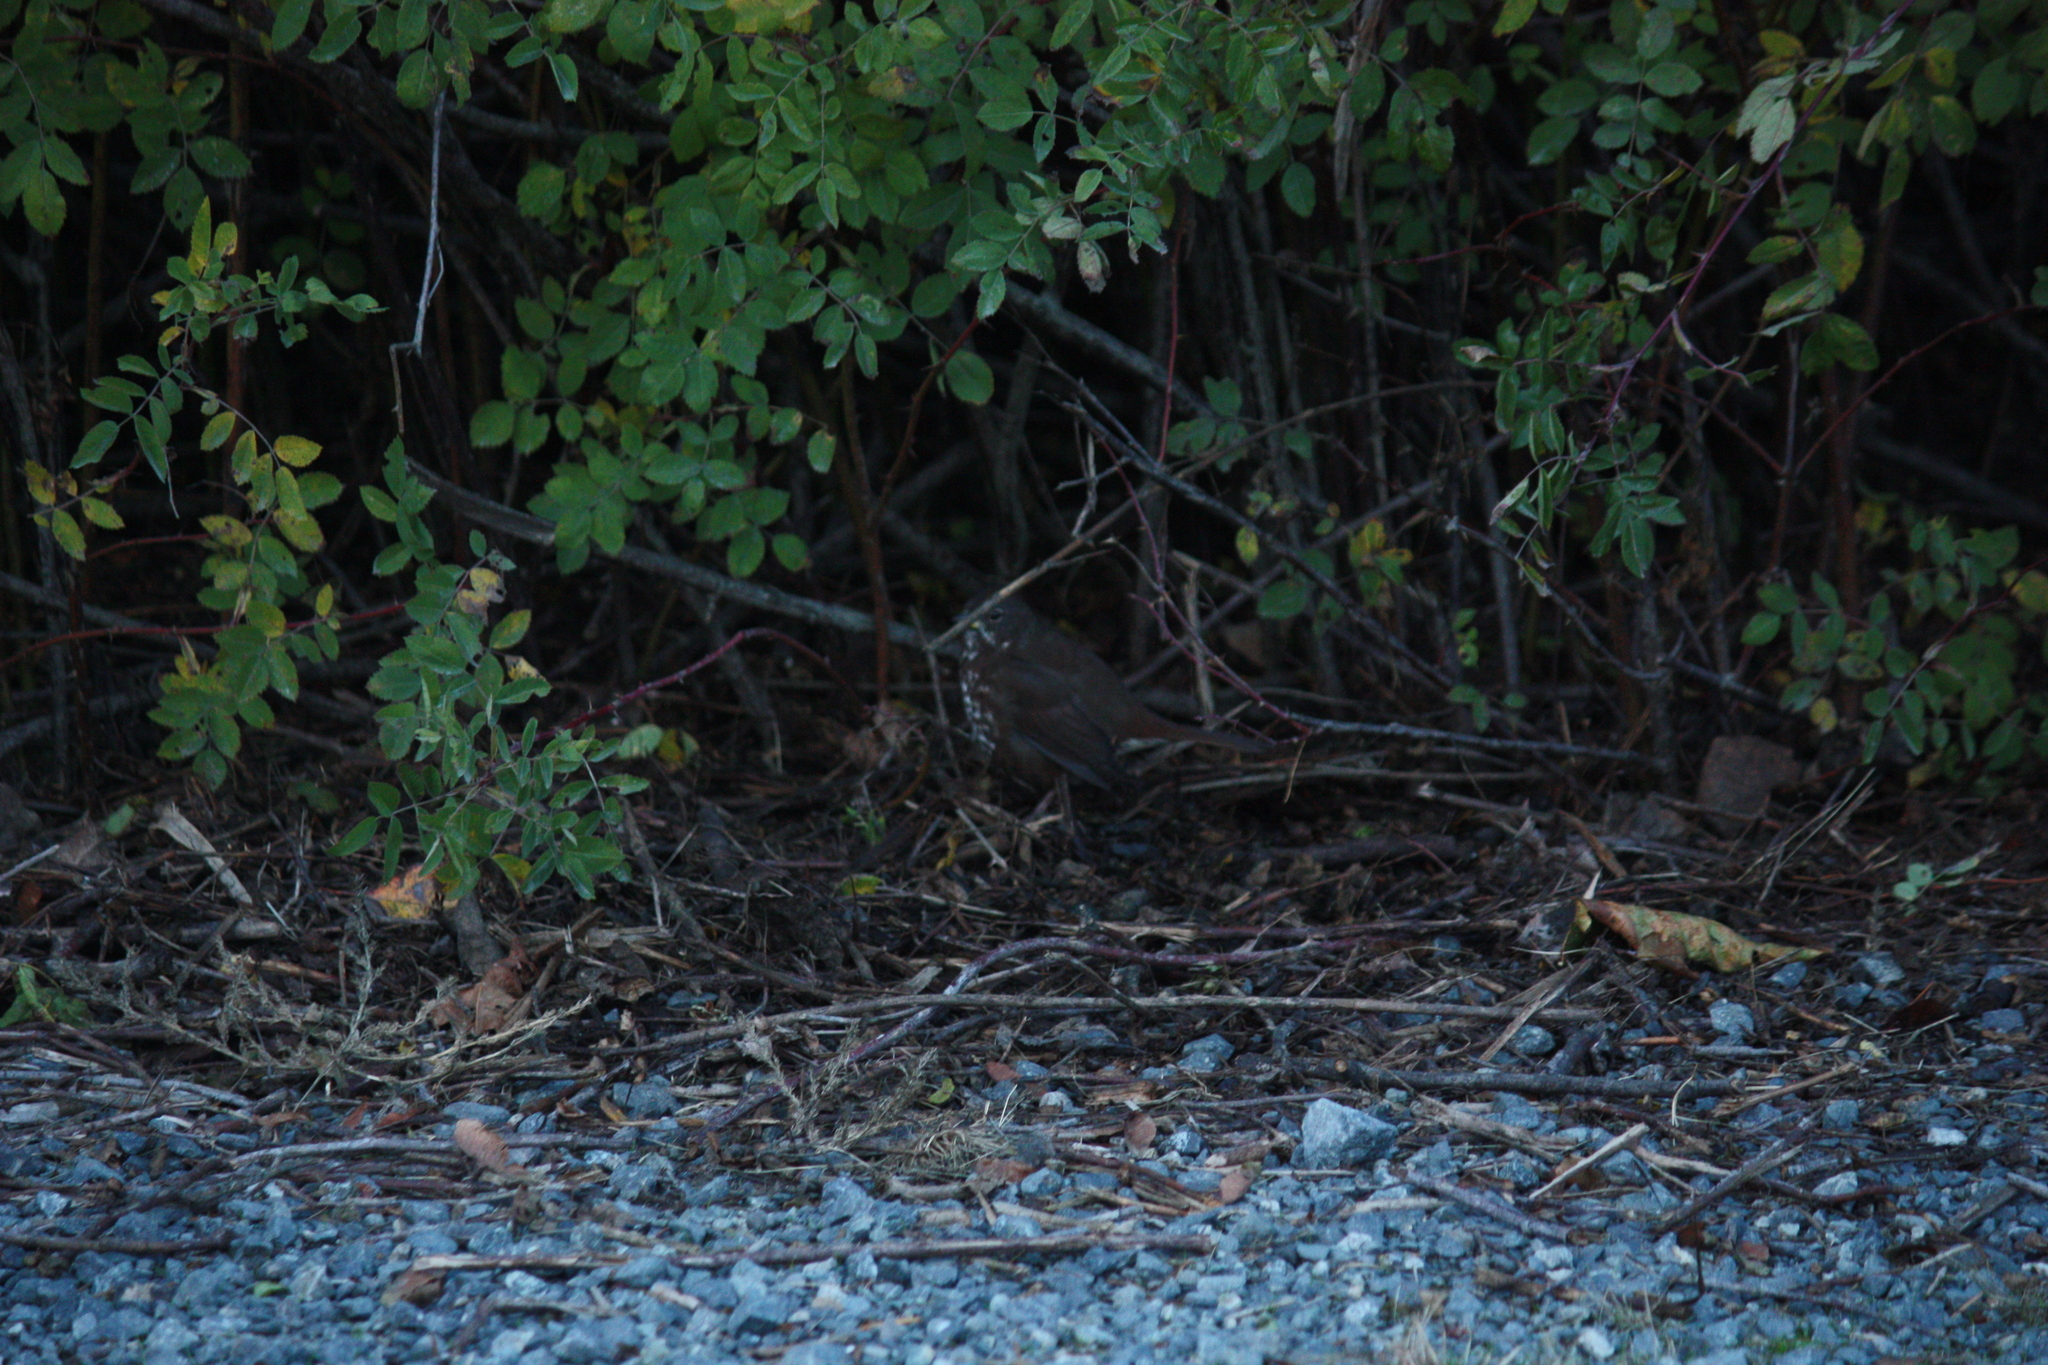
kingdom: Animalia
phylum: Chordata
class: Aves
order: Passeriformes
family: Passerellidae
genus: Passerella
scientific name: Passerella iliaca
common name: Fox sparrow
